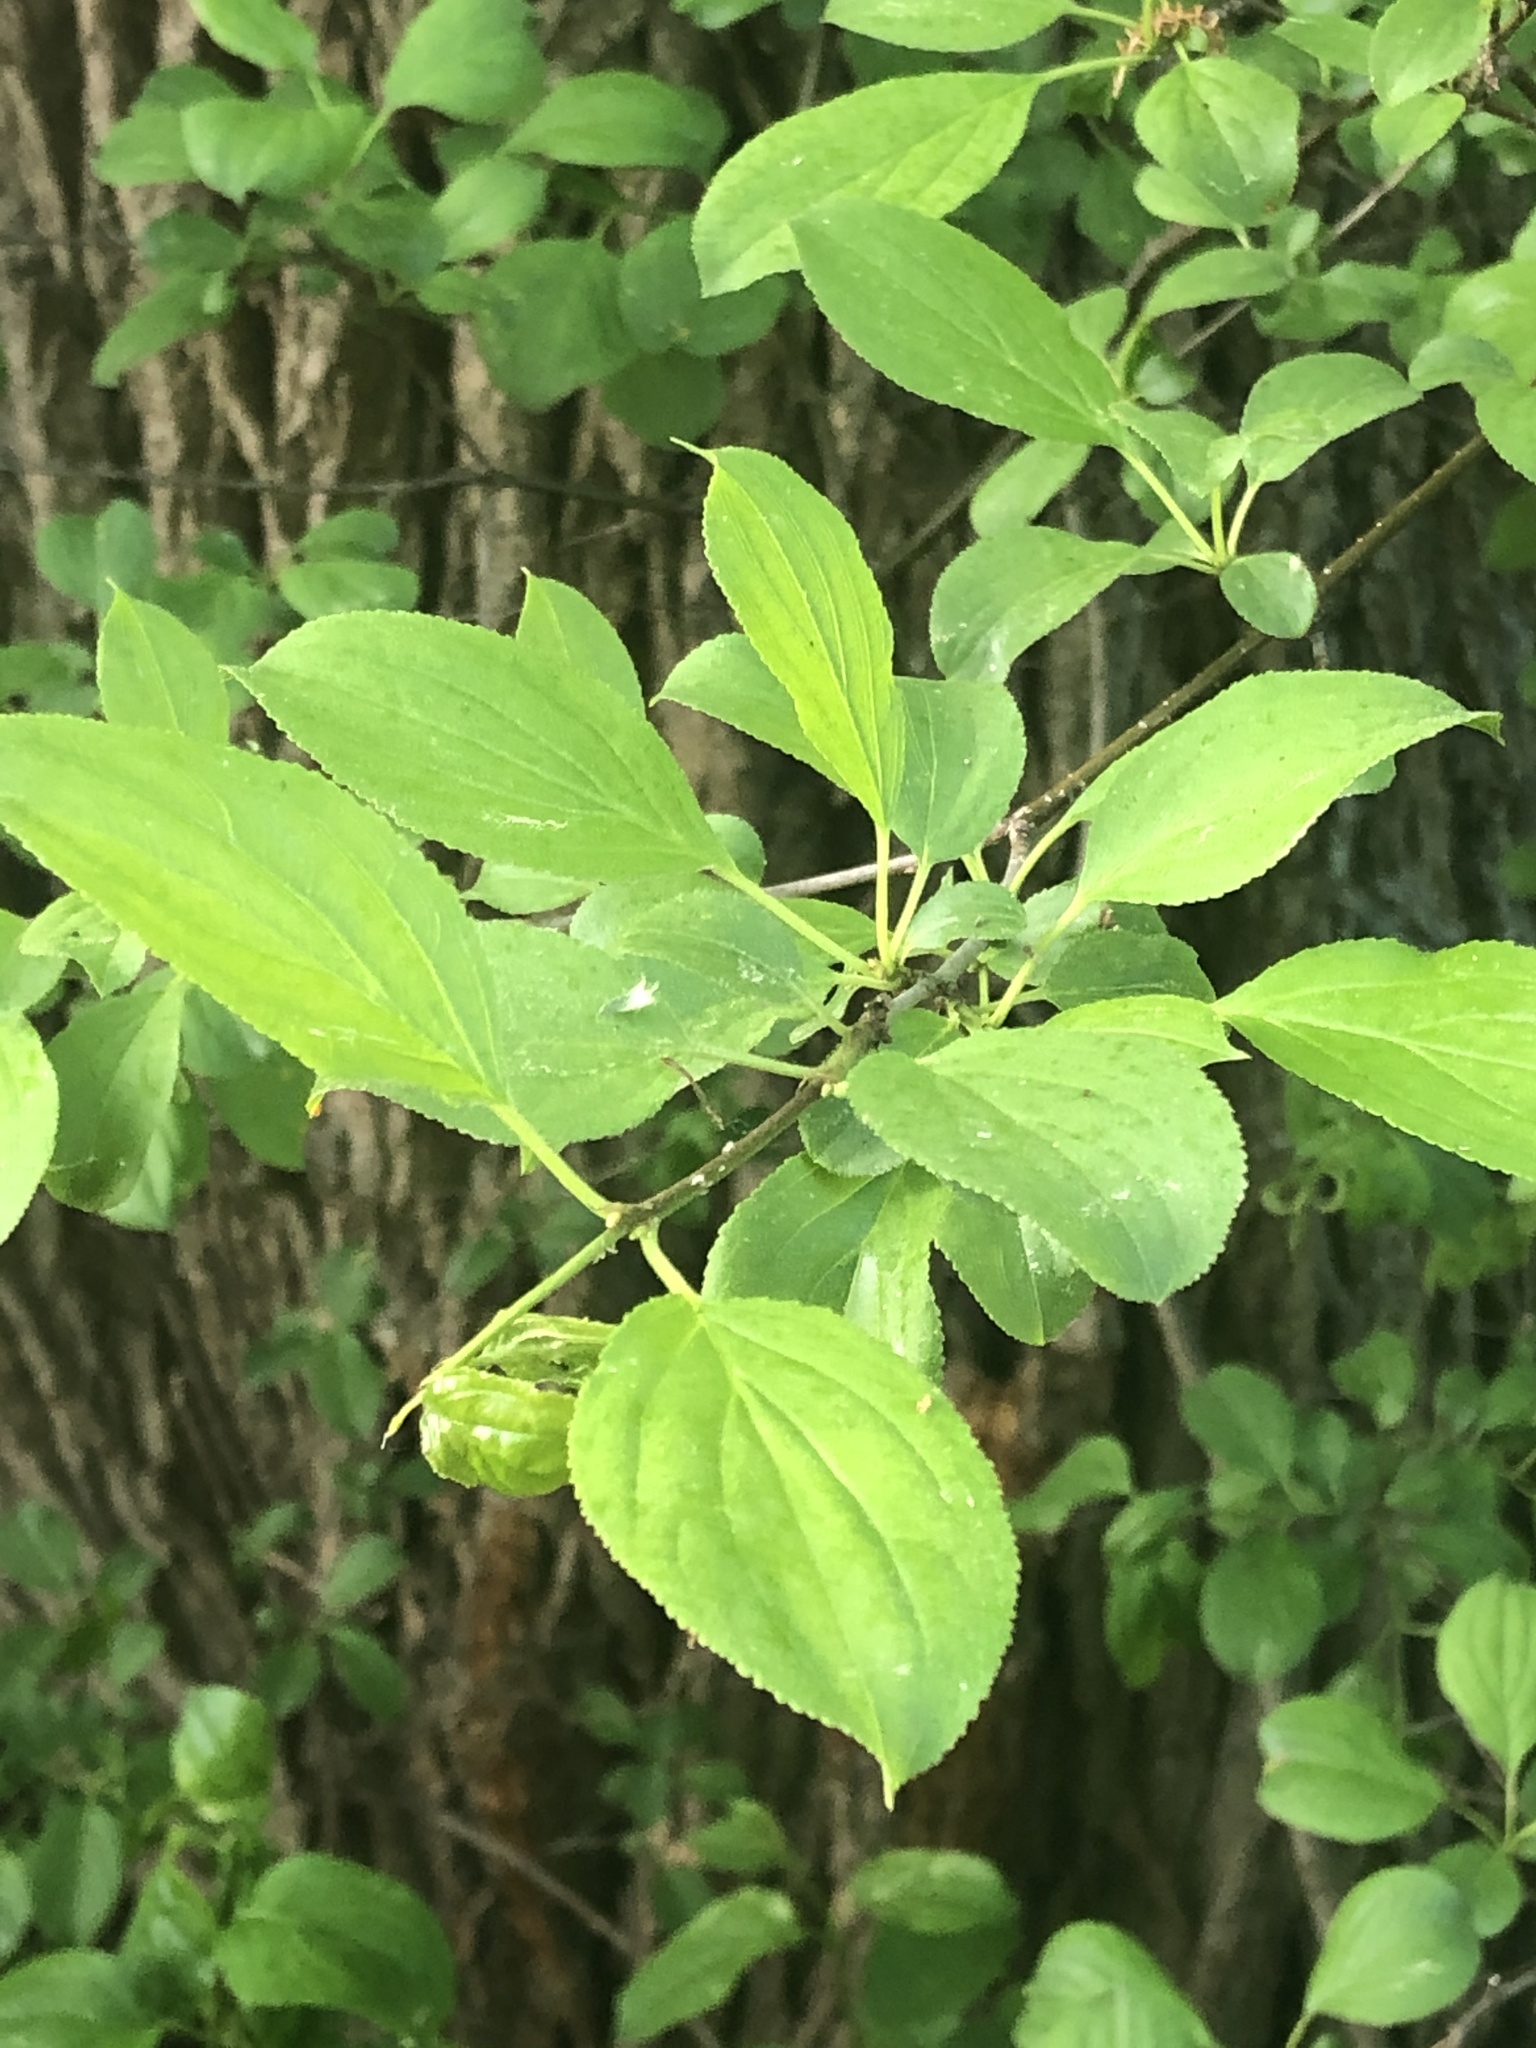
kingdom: Plantae
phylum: Tracheophyta
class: Magnoliopsida
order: Rosales
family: Rhamnaceae
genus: Rhamnus
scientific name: Rhamnus cathartica
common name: Common buckthorn
